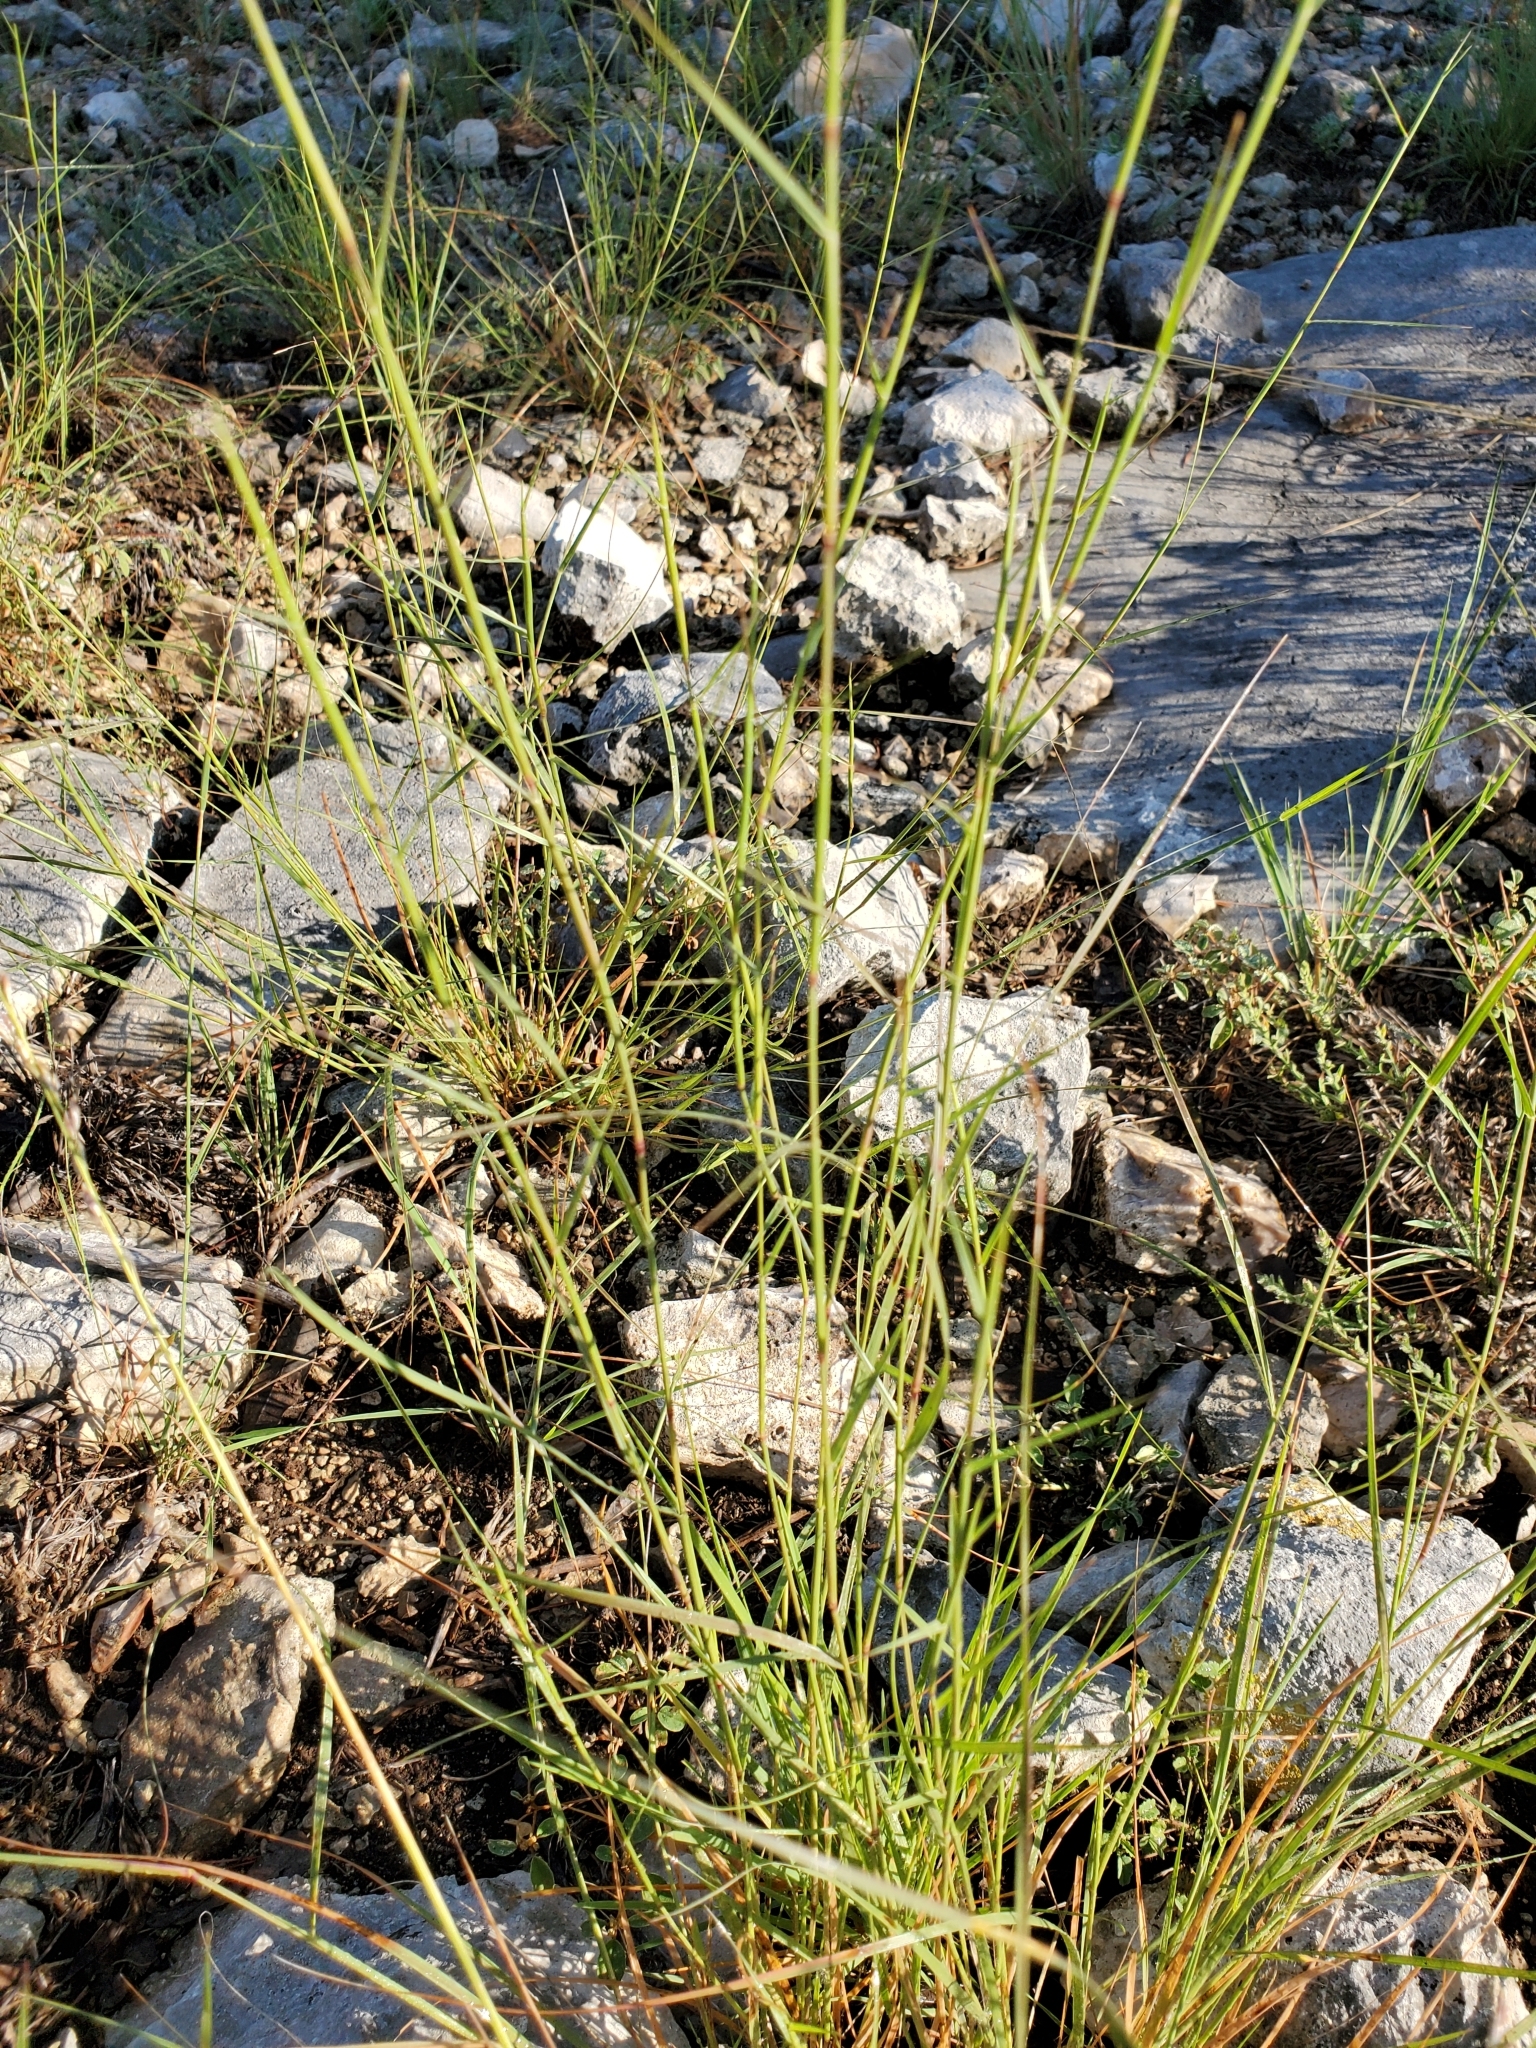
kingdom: Plantae
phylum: Tracheophyta
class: Liliopsida
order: Poales
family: Poaceae
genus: Sporobolus
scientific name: Sporobolus vaginiflorus
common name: Poverty dropseed
